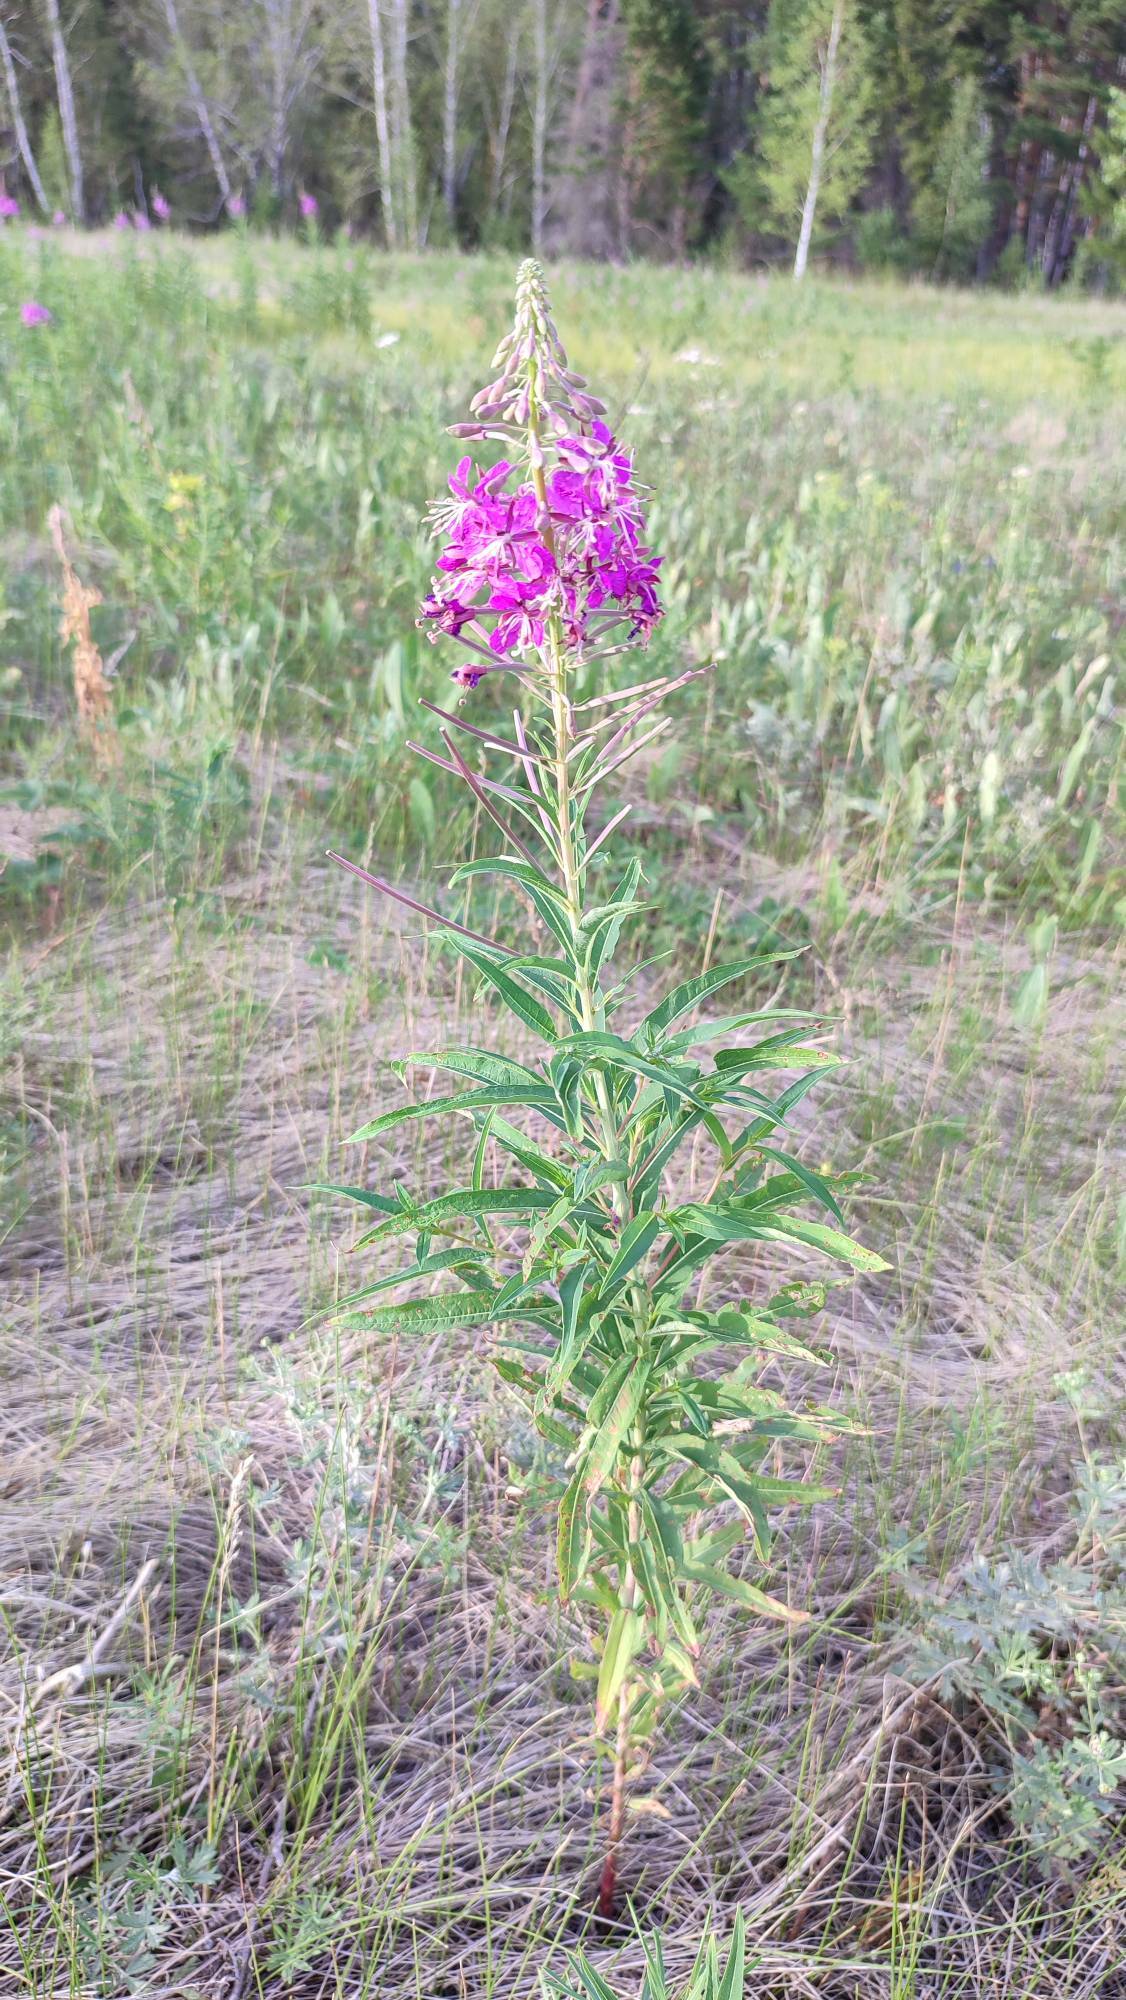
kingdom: Plantae
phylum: Tracheophyta
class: Magnoliopsida
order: Myrtales
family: Onagraceae
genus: Chamaenerion
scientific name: Chamaenerion angustifolium
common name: Fireweed
